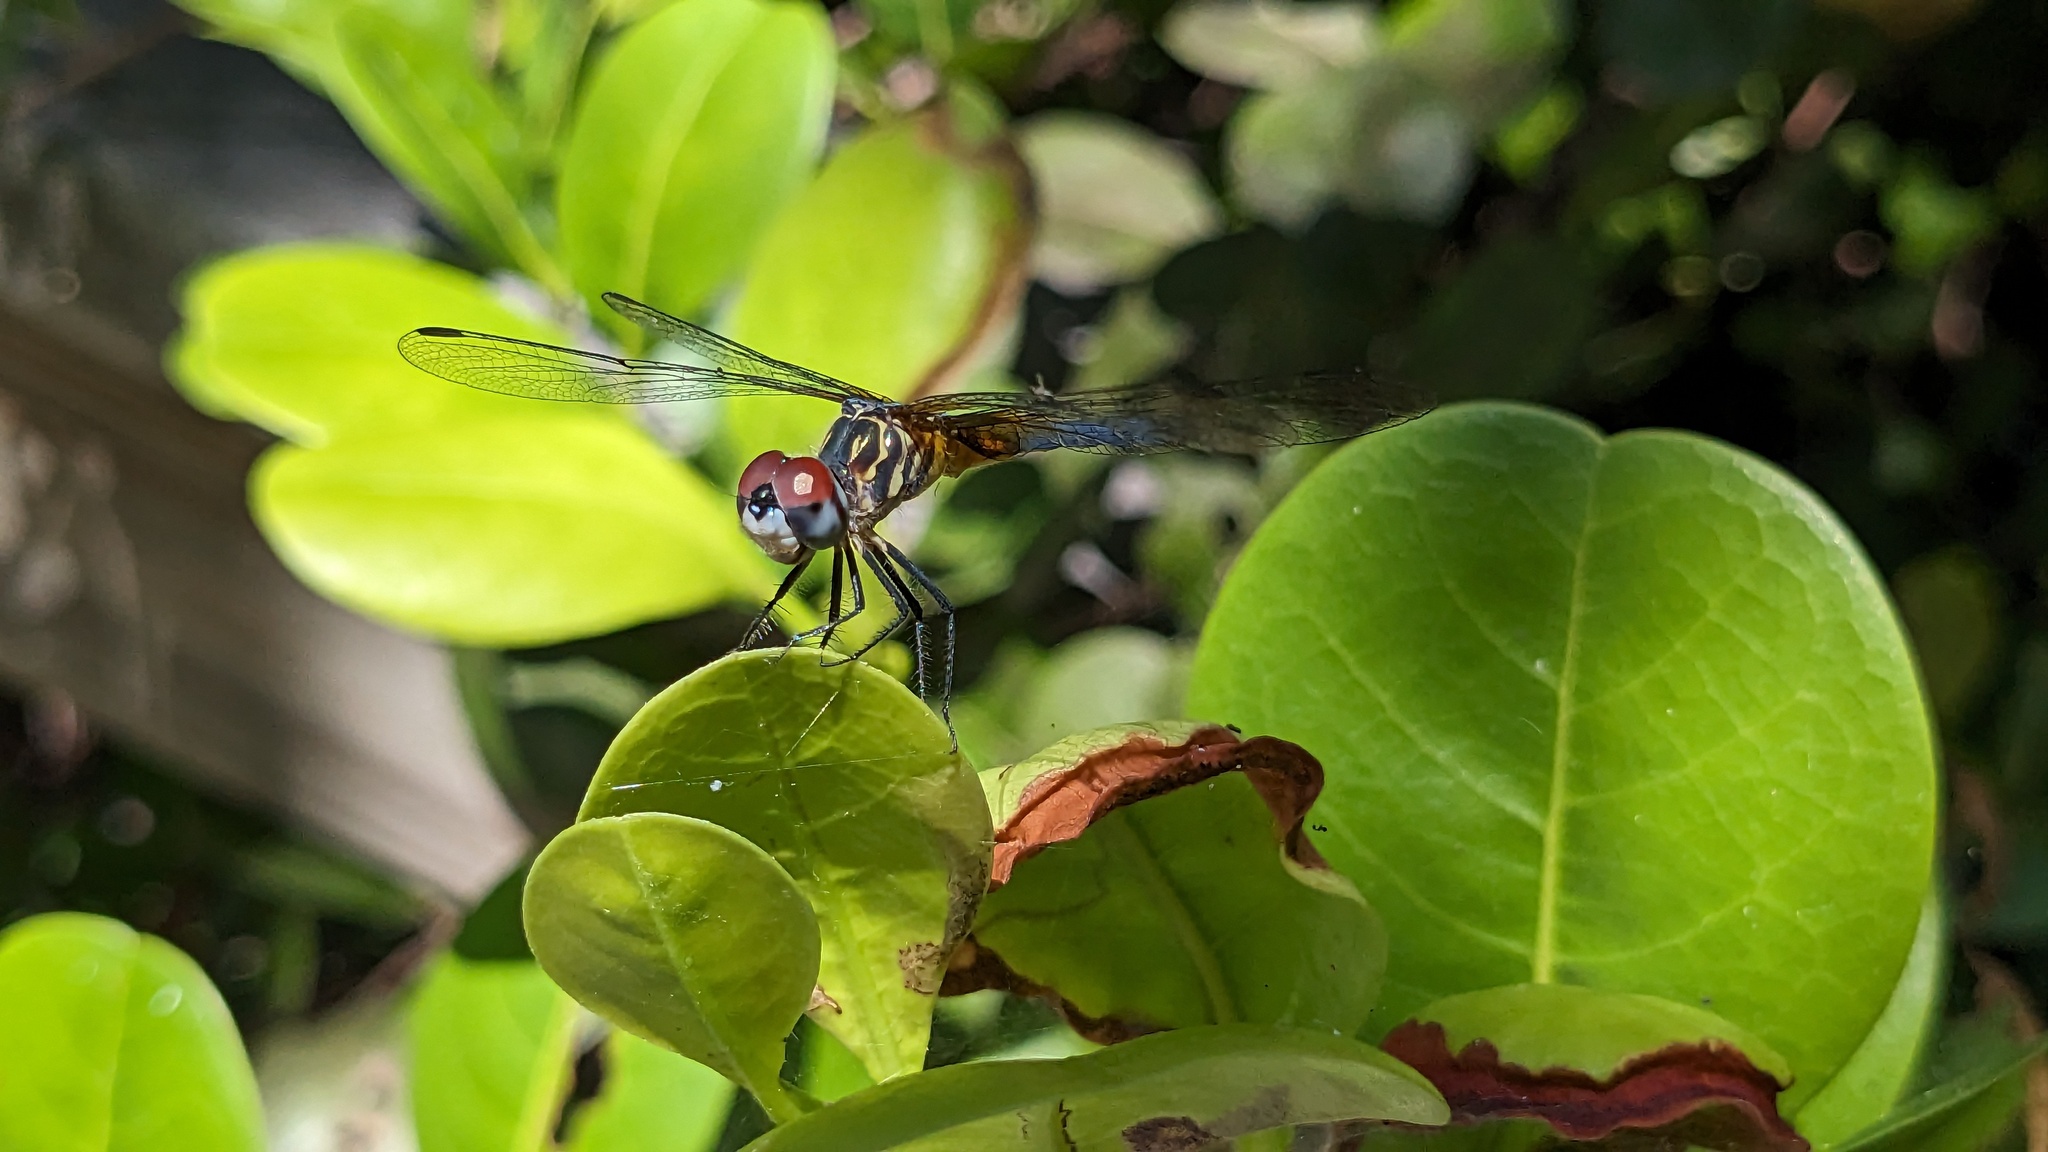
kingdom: Animalia
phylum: Arthropoda
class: Insecta
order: Odonata
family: Libellulidae
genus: Pachydiplax
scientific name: Pachydiplax longipennis
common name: Blue dasher
